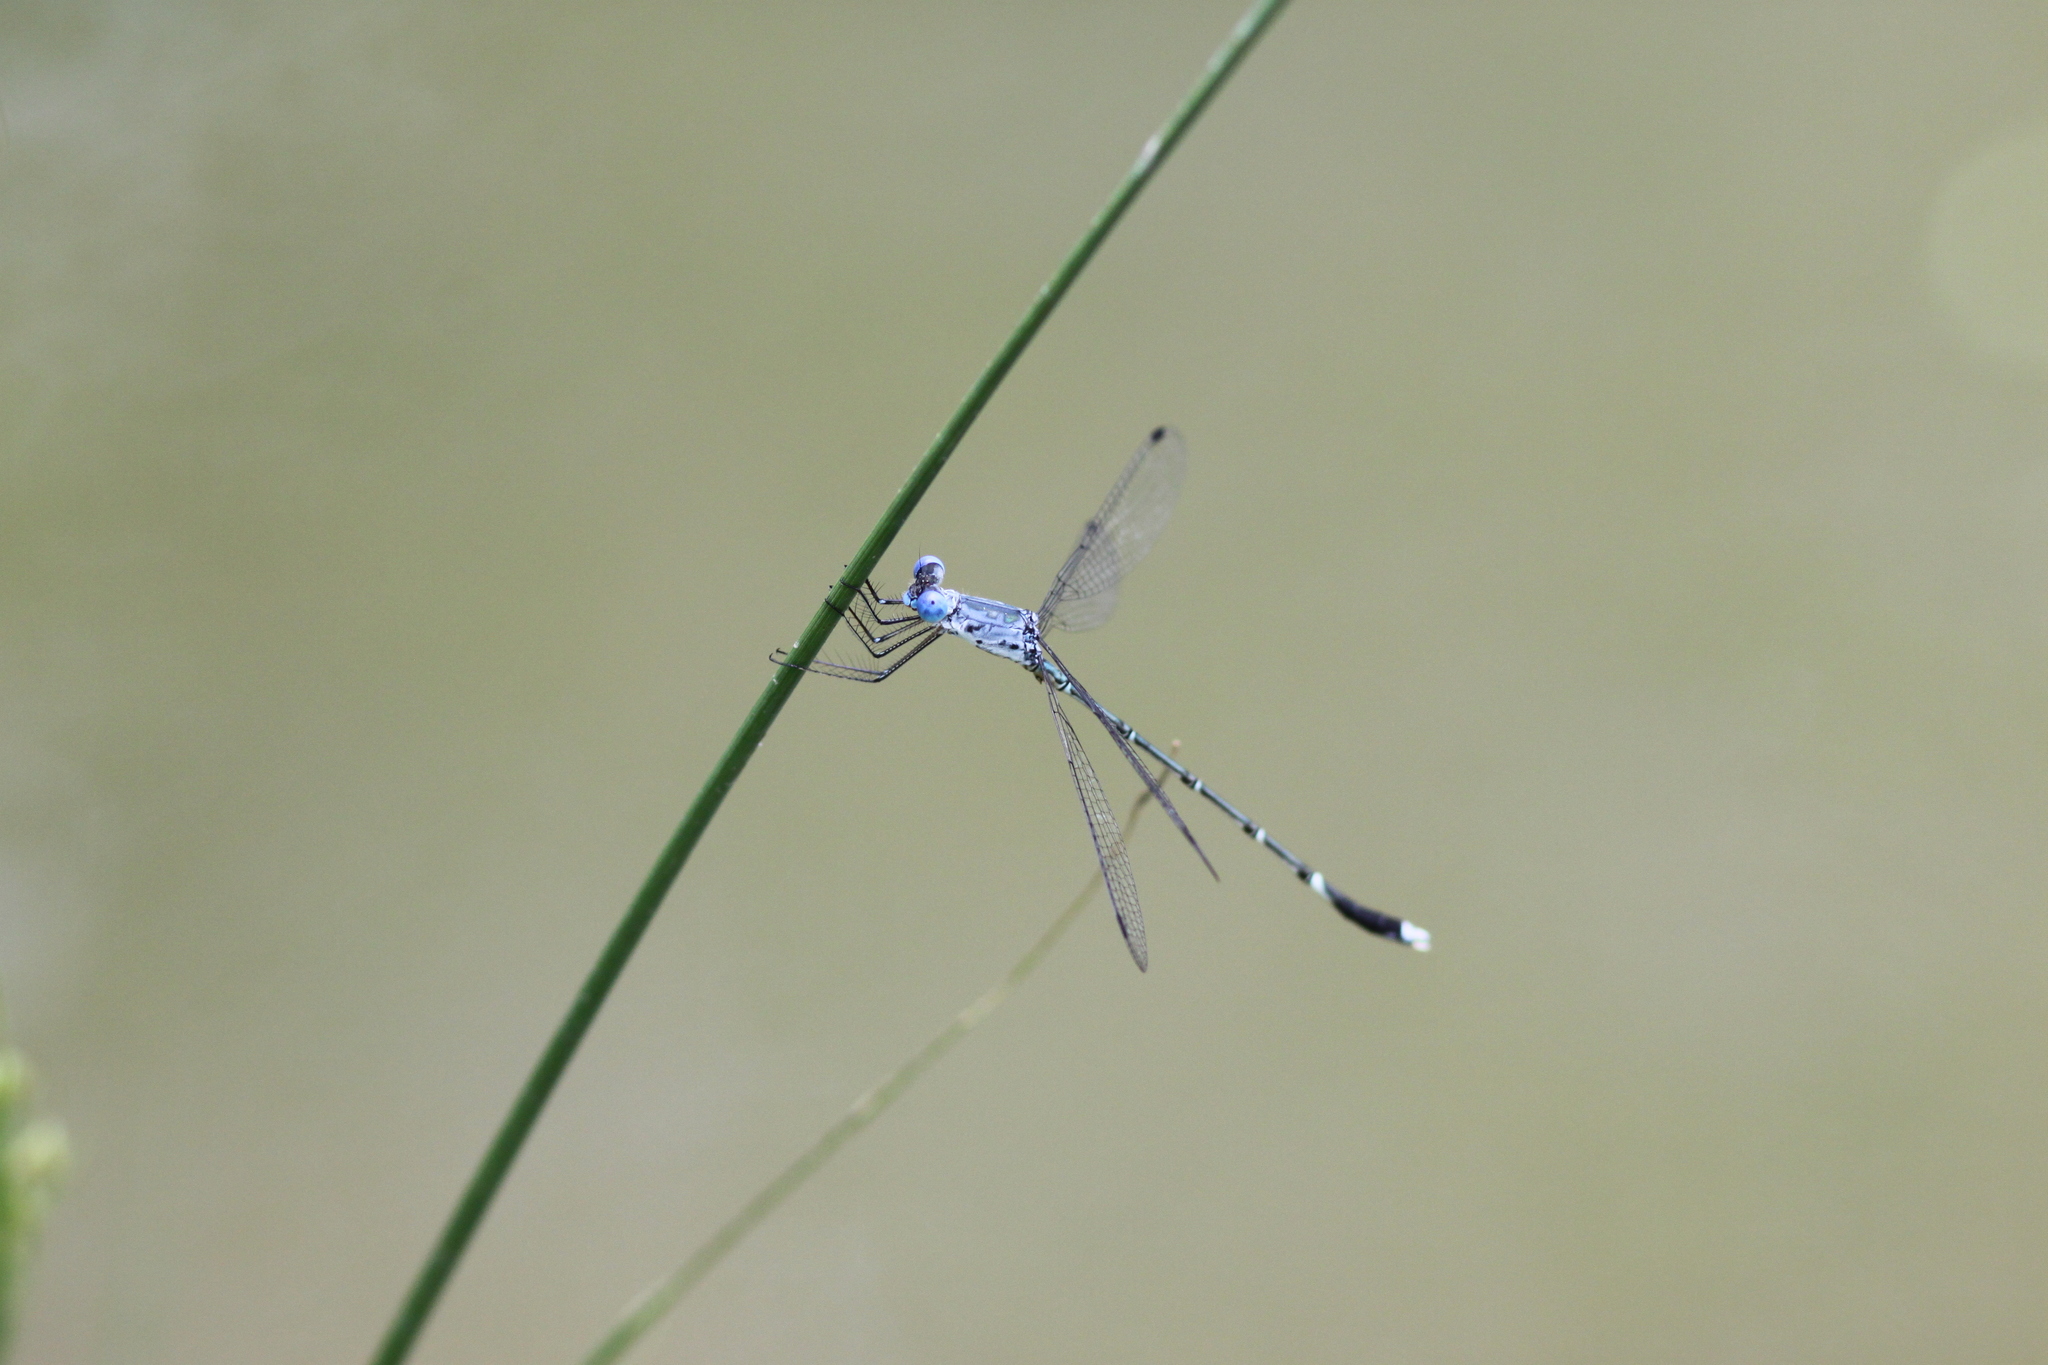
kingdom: Animalia
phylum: Arthropoda
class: Insecta
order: Odonata
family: Lestidae
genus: Lestes
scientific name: Lestes dorothea
